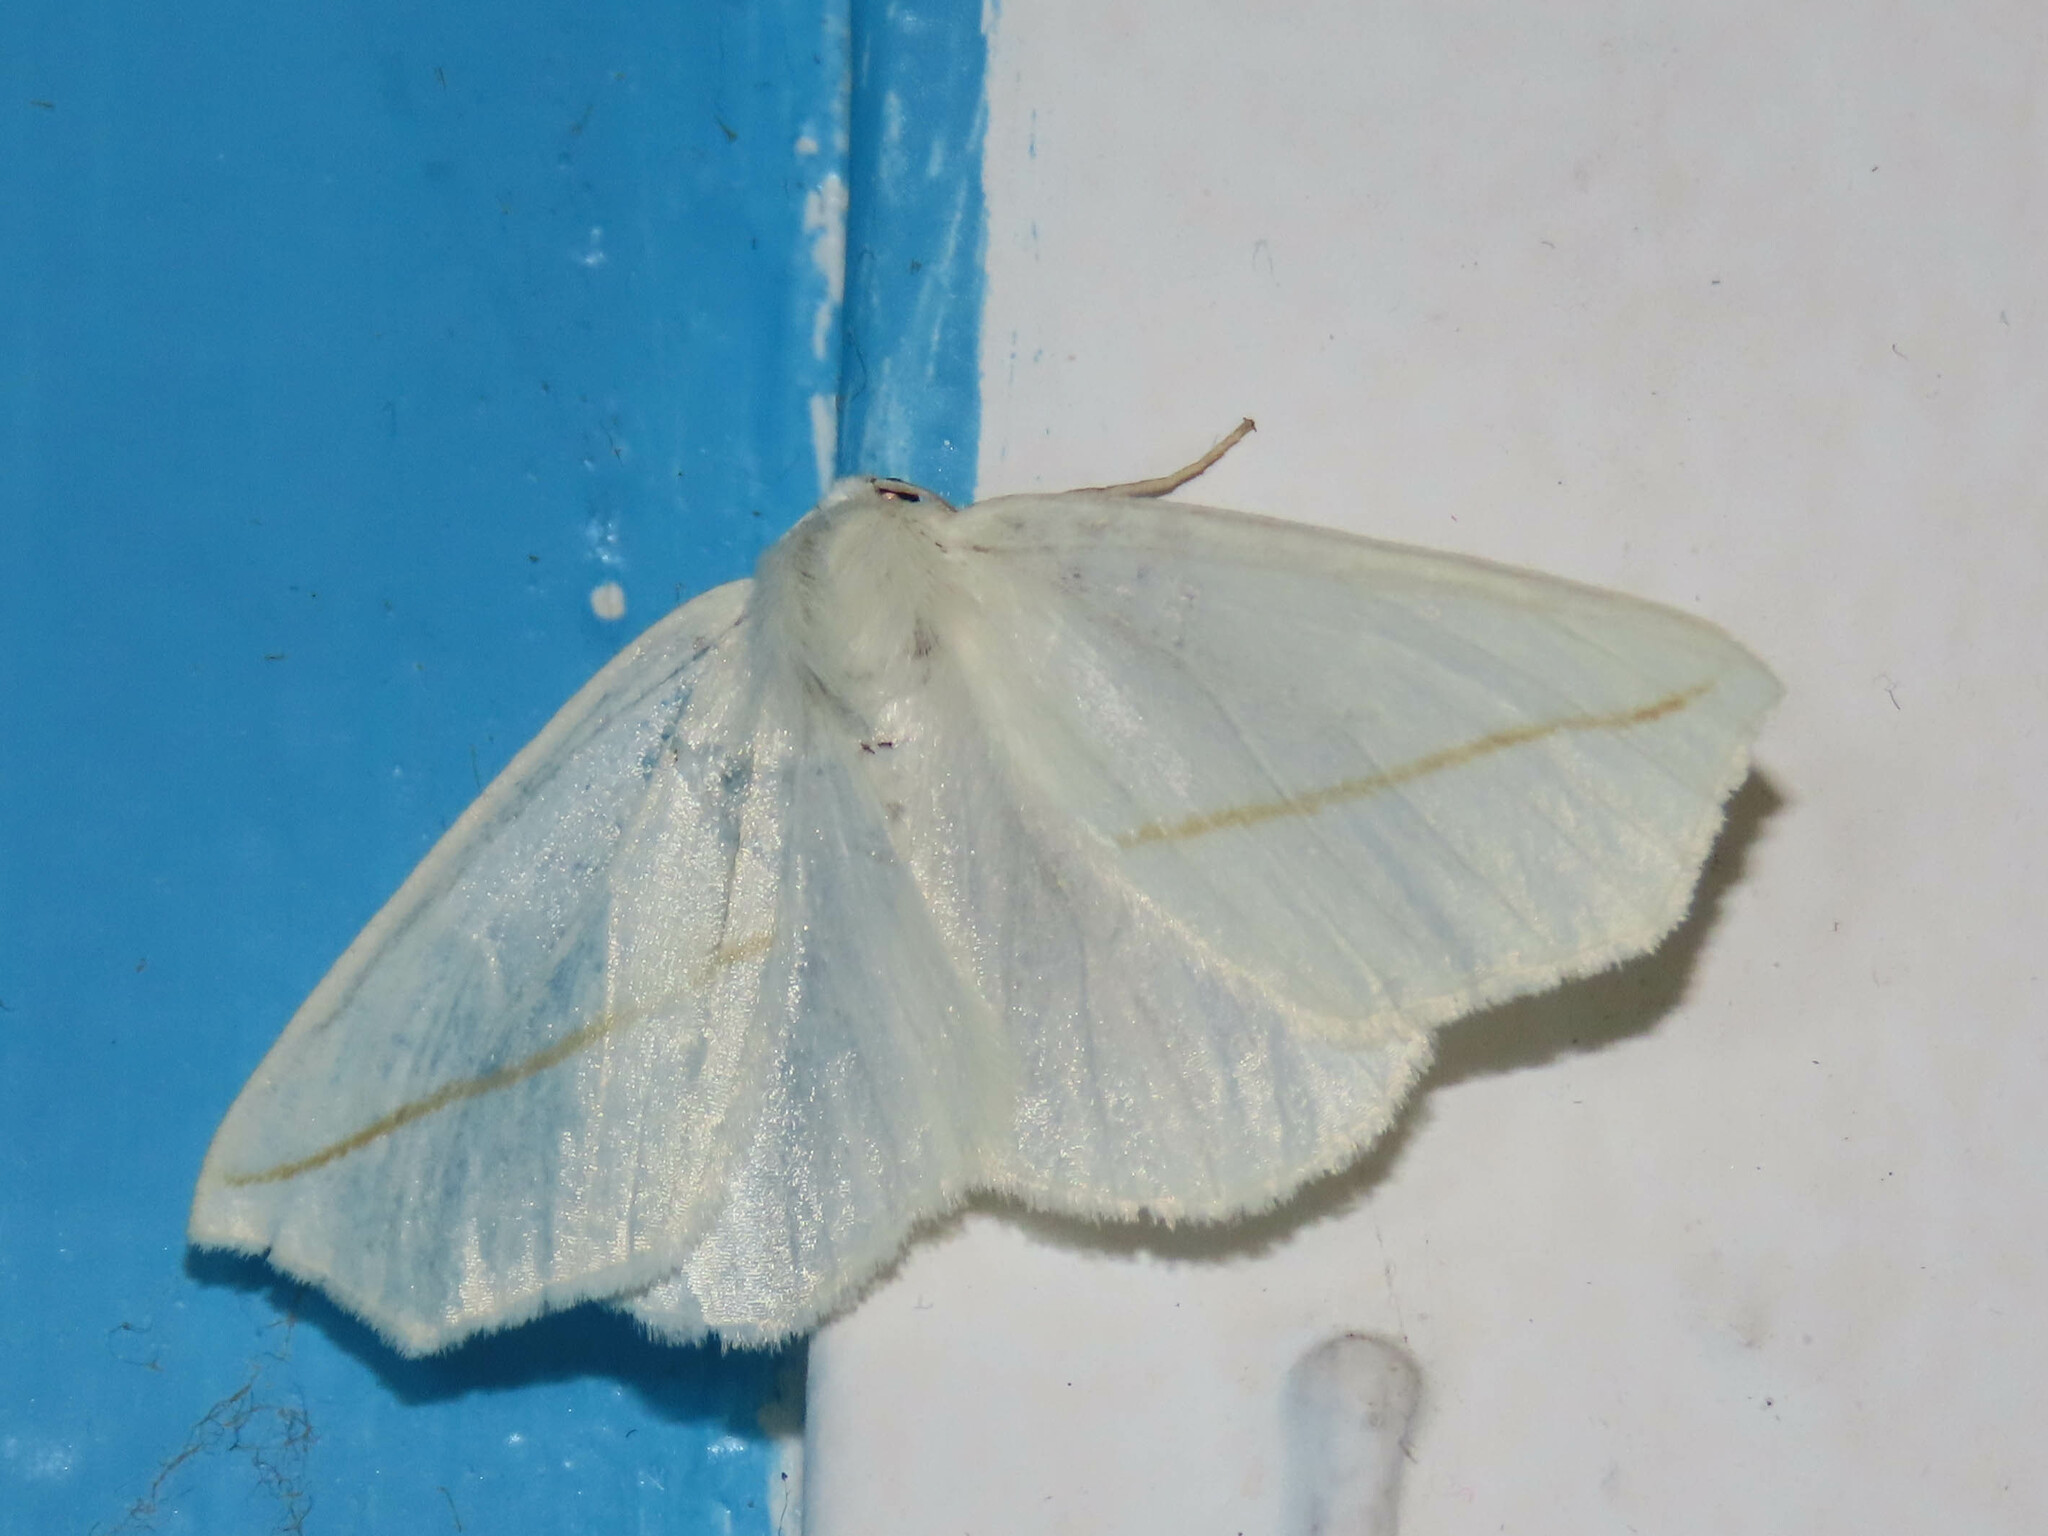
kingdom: Animalia
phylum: Arthropoda
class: Insecta
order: Lepidoptera
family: Geometridae
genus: Tetracis
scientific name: Tetracis cachexiata
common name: White slant-line
